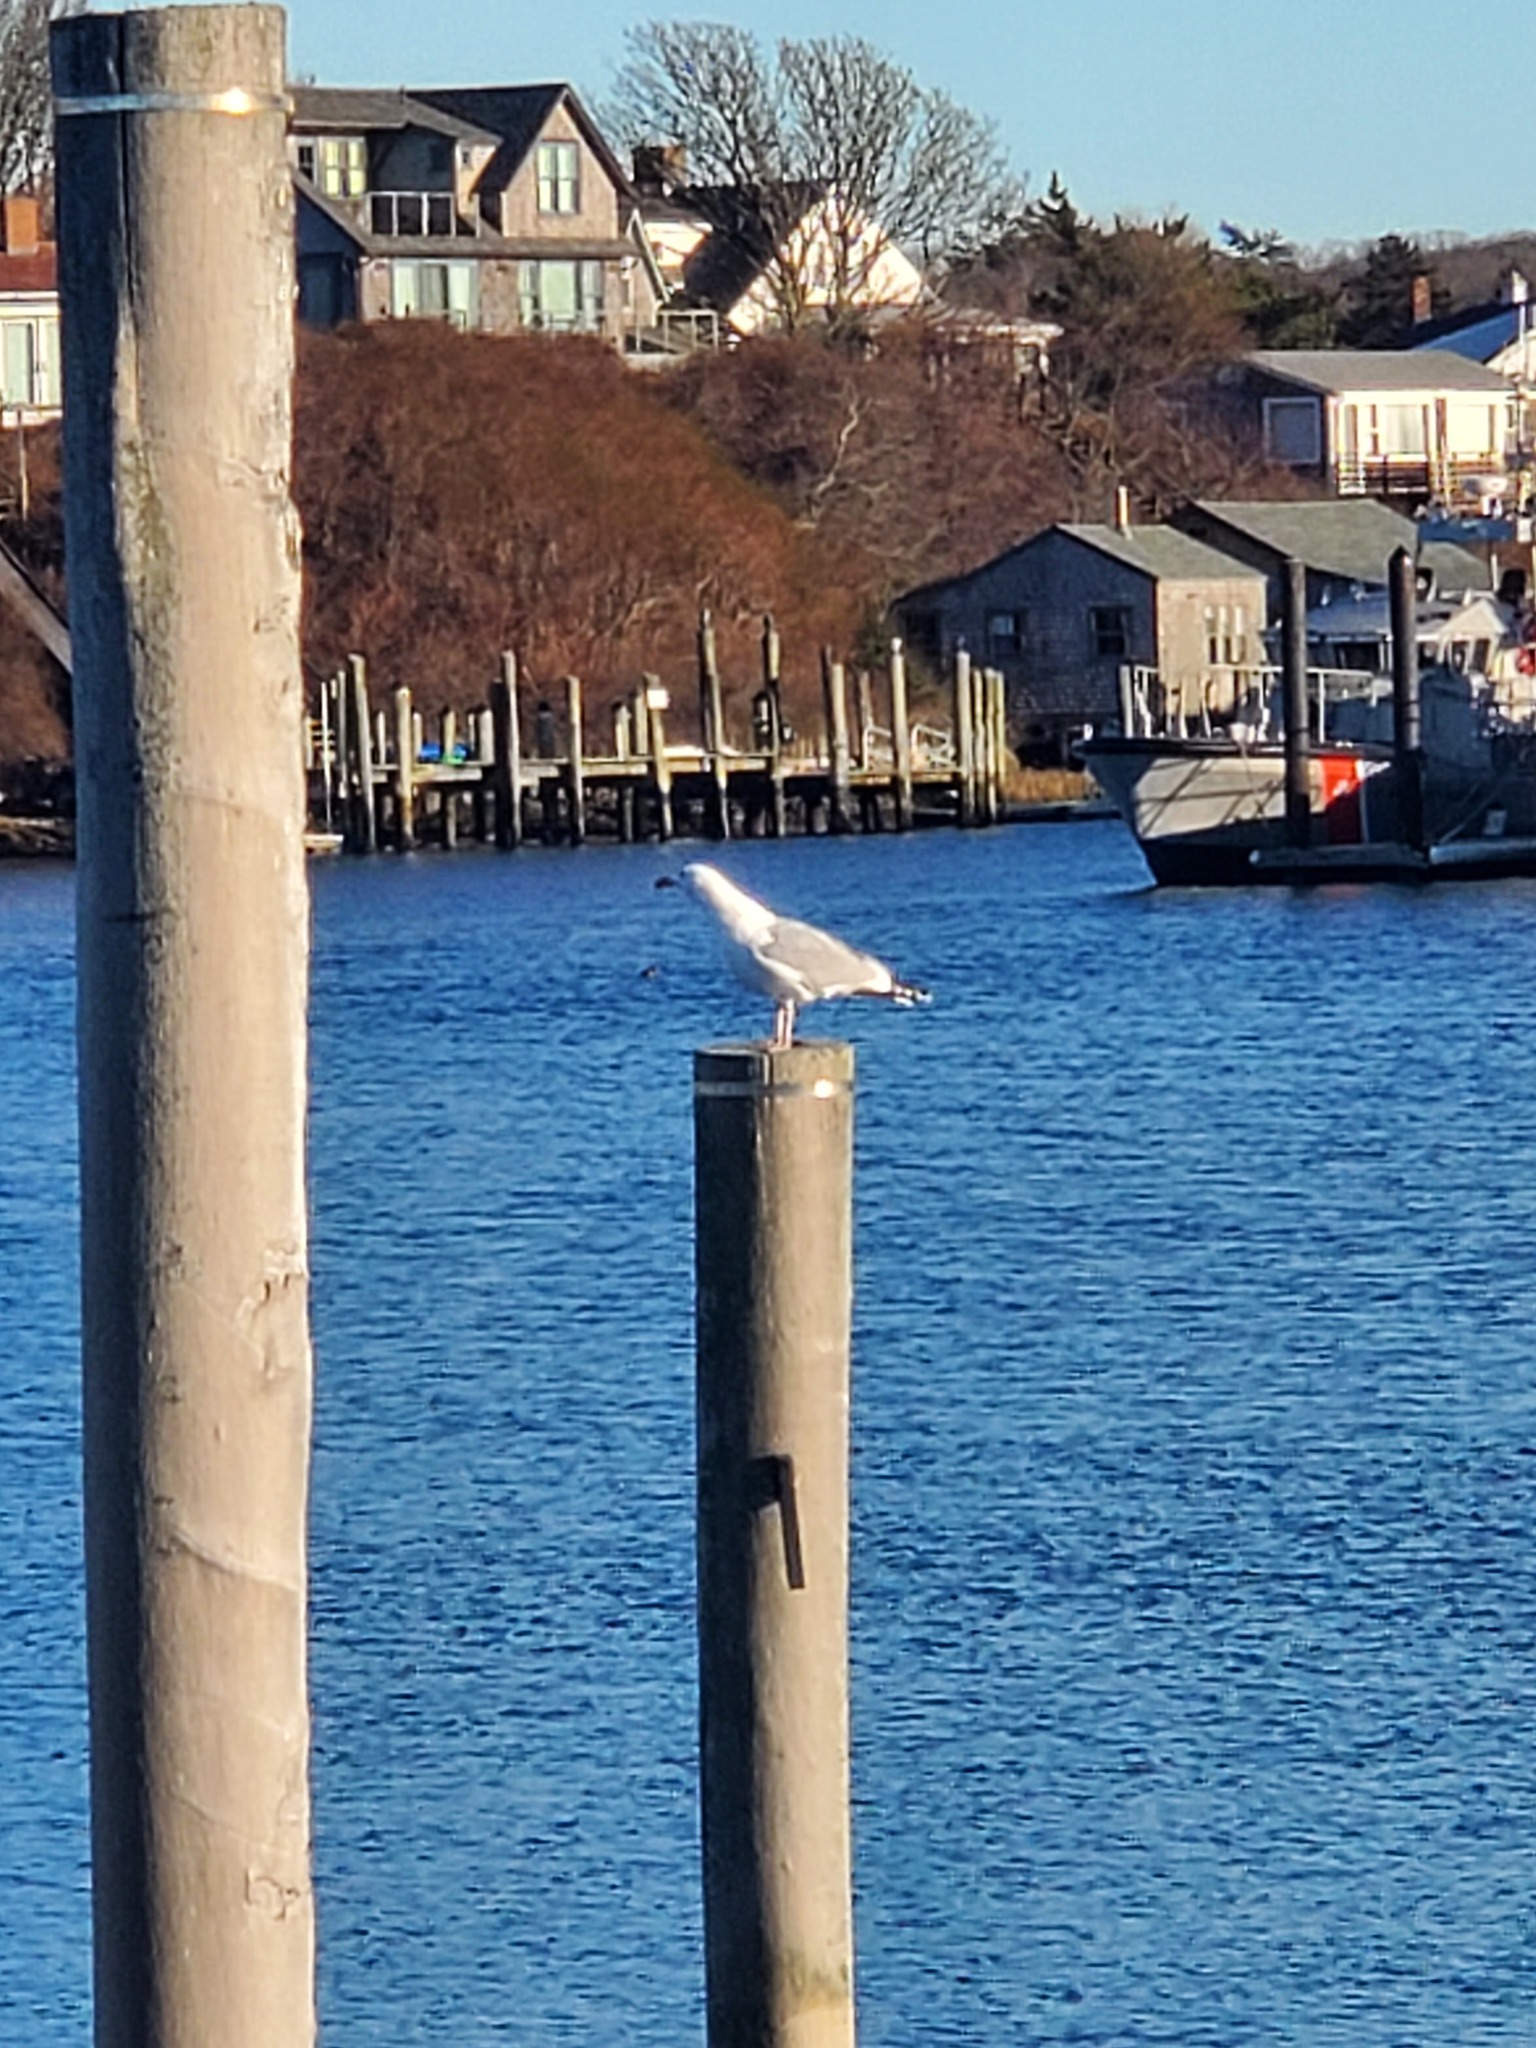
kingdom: Animalia
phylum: Chordata
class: Aves
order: Charadriiformes
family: Laridae
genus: Larus
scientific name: Larus argentatus
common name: Herring gull
